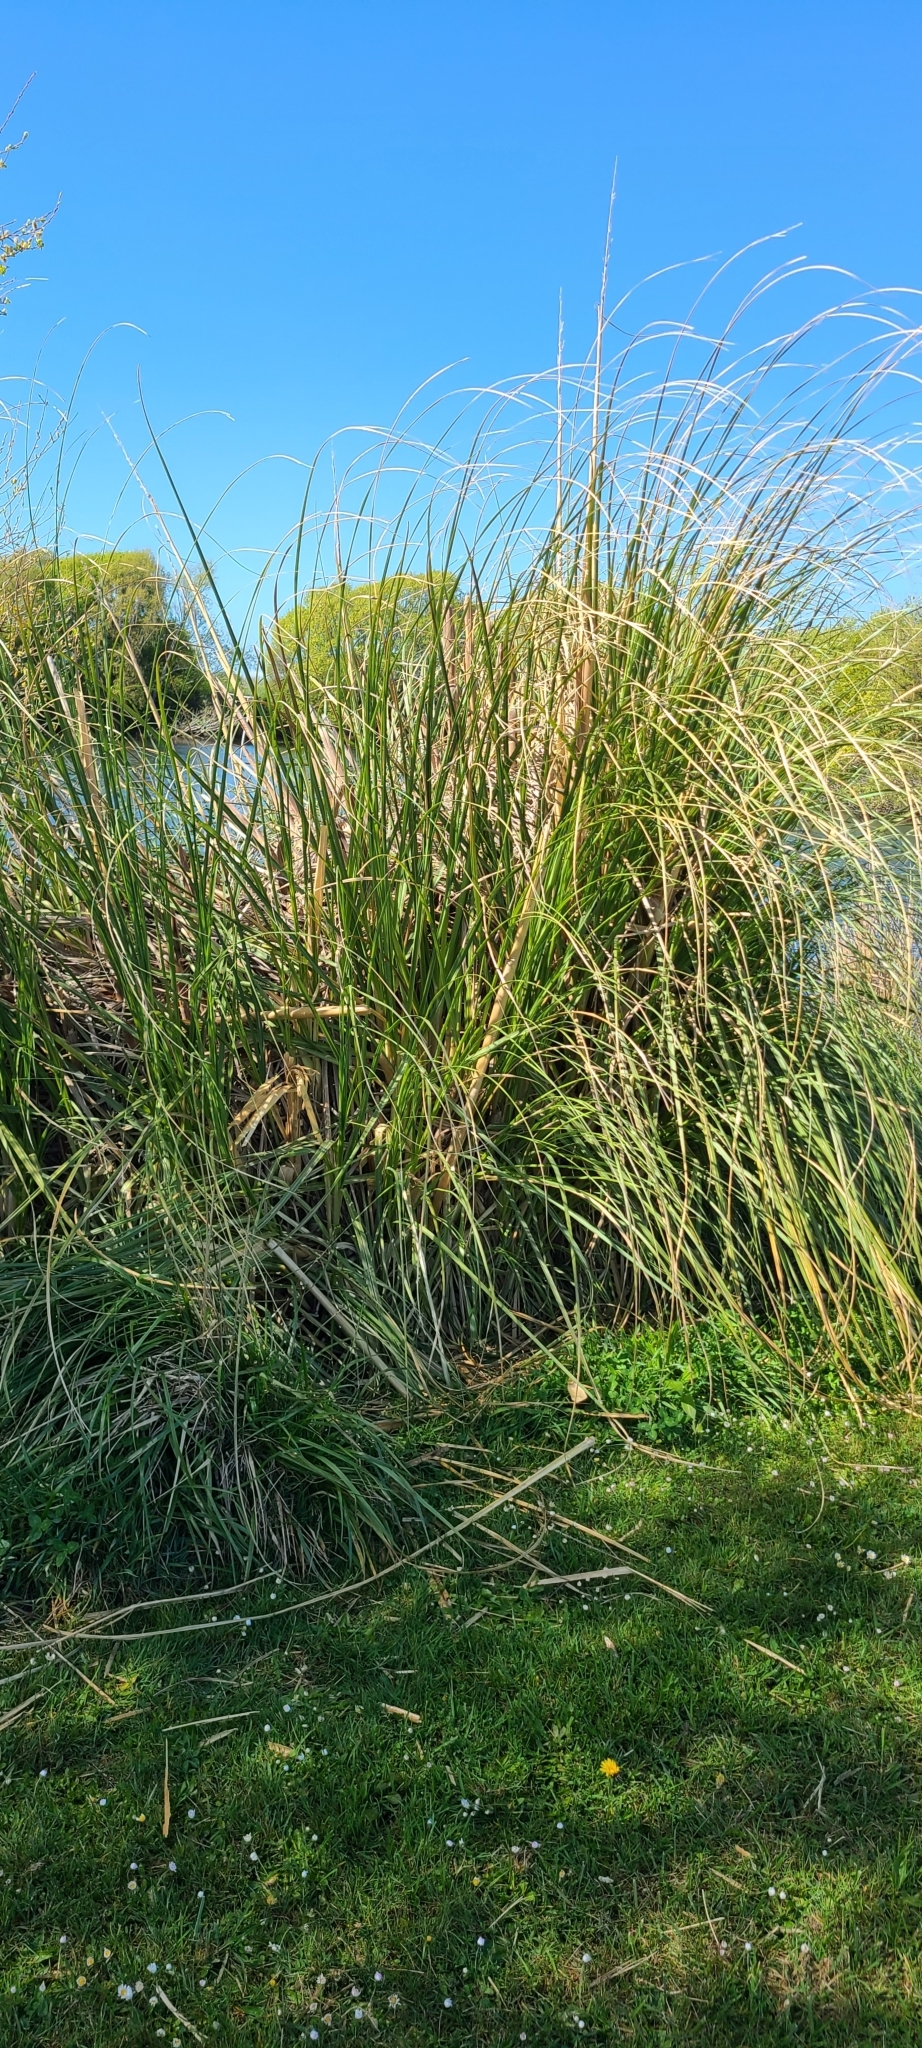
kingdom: Plantae
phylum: Tracheophyta
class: Liliopsida
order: Poales
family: Poaceae
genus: Cortaderia
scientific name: Cortaderia selloana
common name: Uruguayan pampas grass
